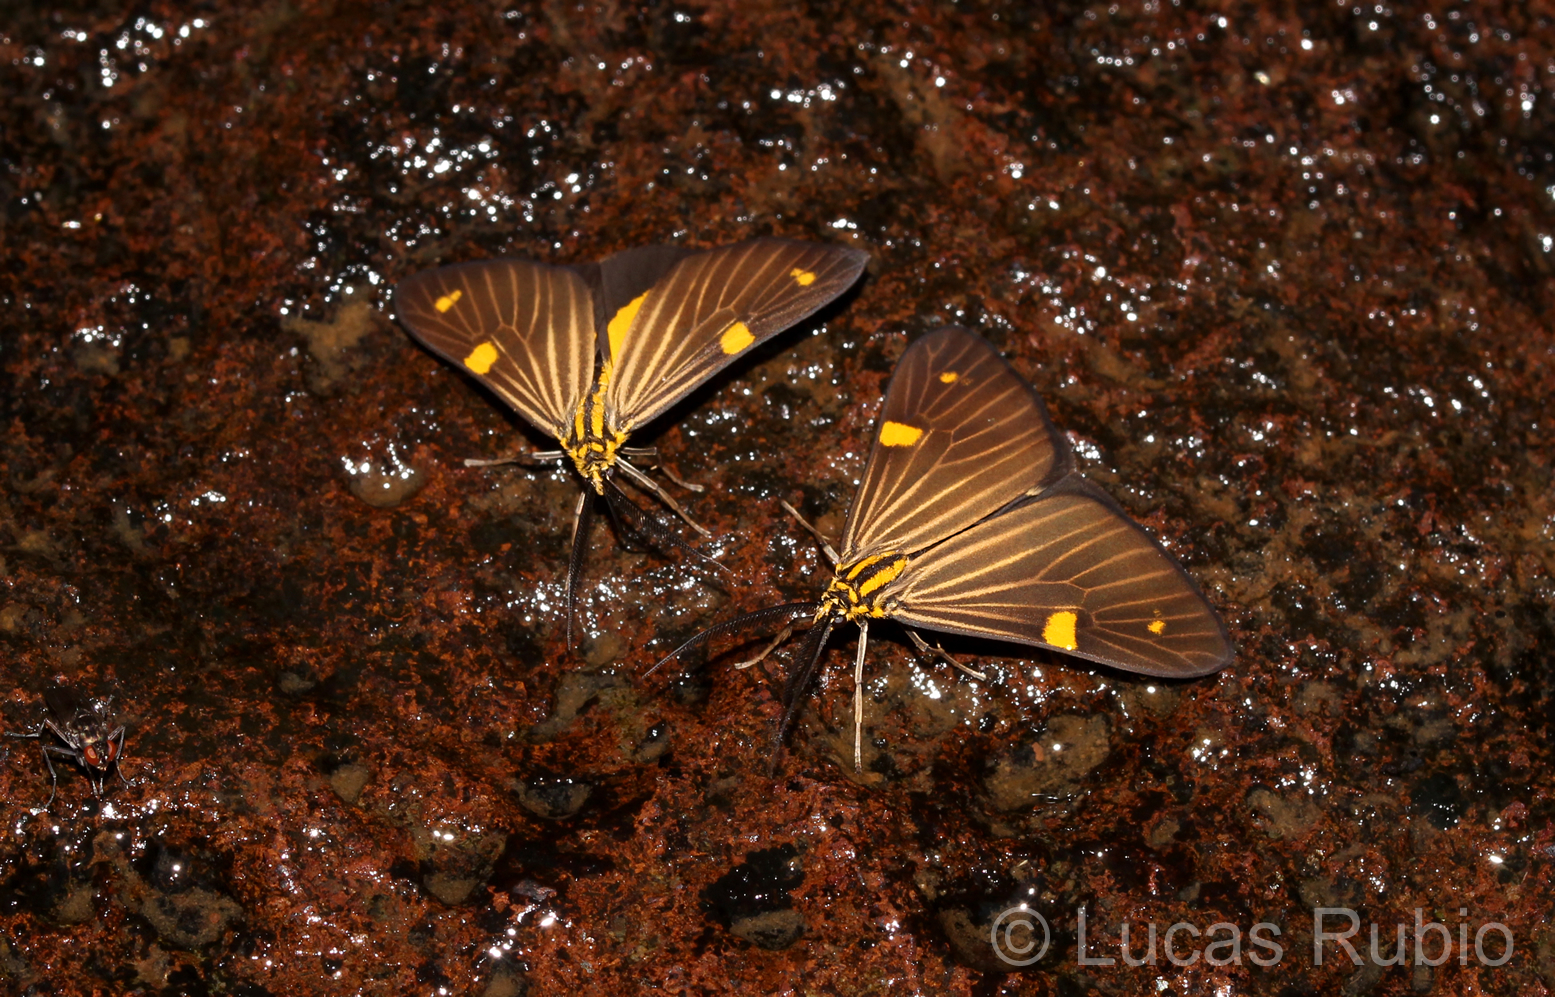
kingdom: Animalia
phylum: Arthropoda
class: Insecta
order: Lepidoptera
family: Notodontidae
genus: Phaeochlaena
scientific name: Phaeochlaena
